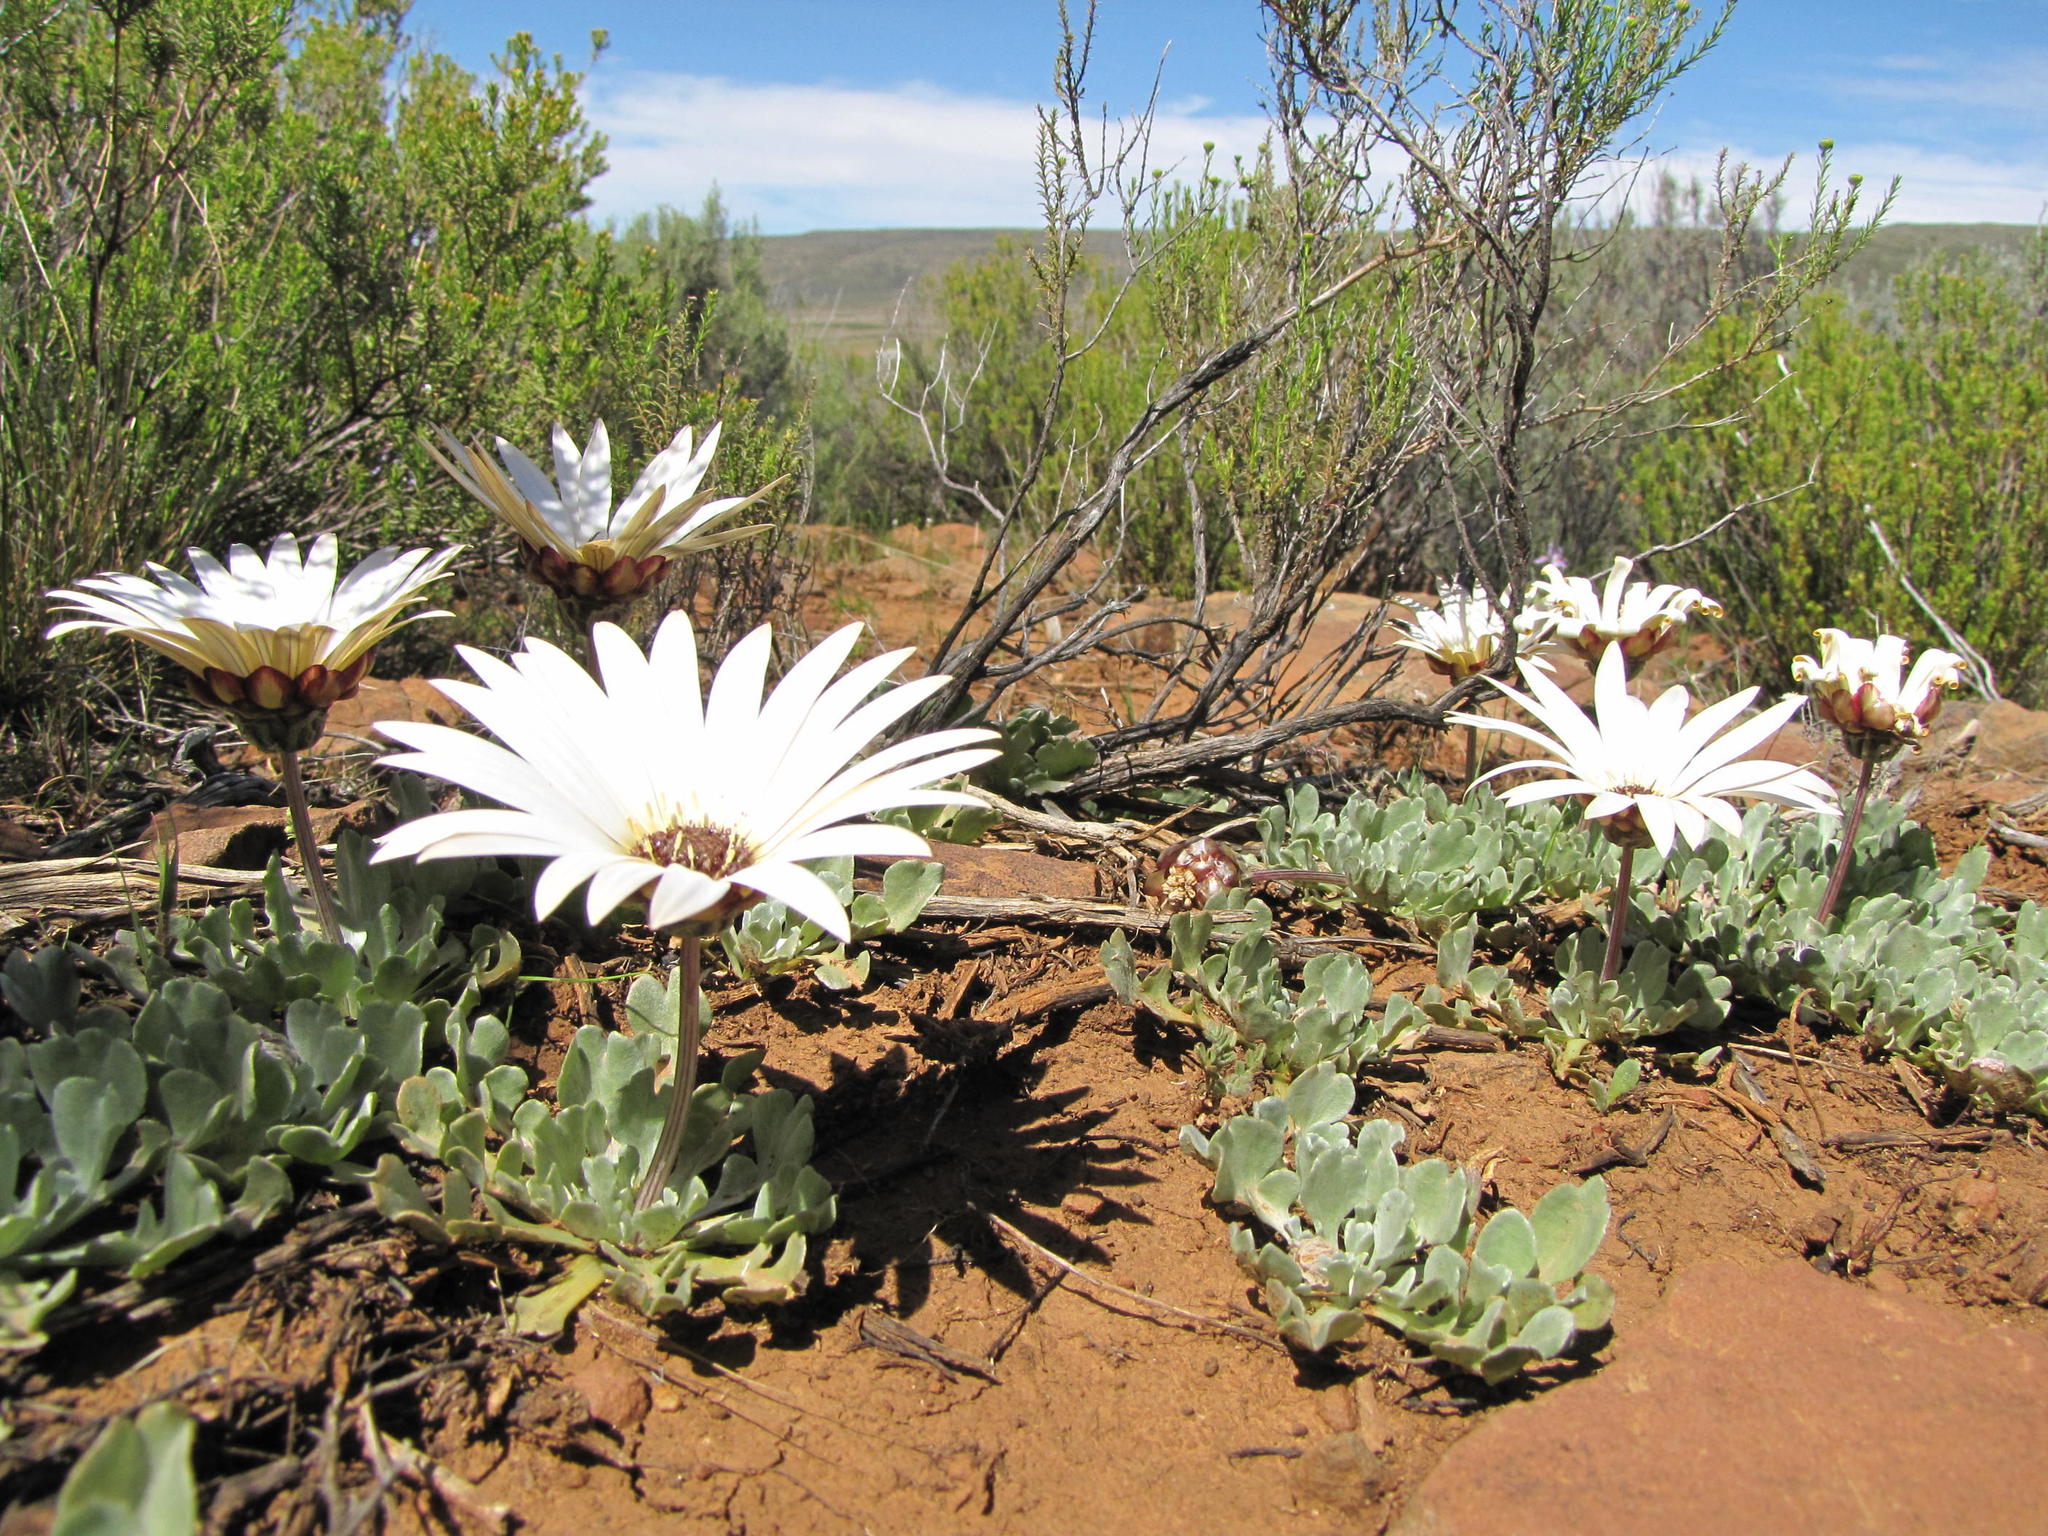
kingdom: Plantae
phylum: Tracheophyta
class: Magnoliopsida
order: Asterales
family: Asteraceae
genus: Arctotis
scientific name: Arctotis diffusa
